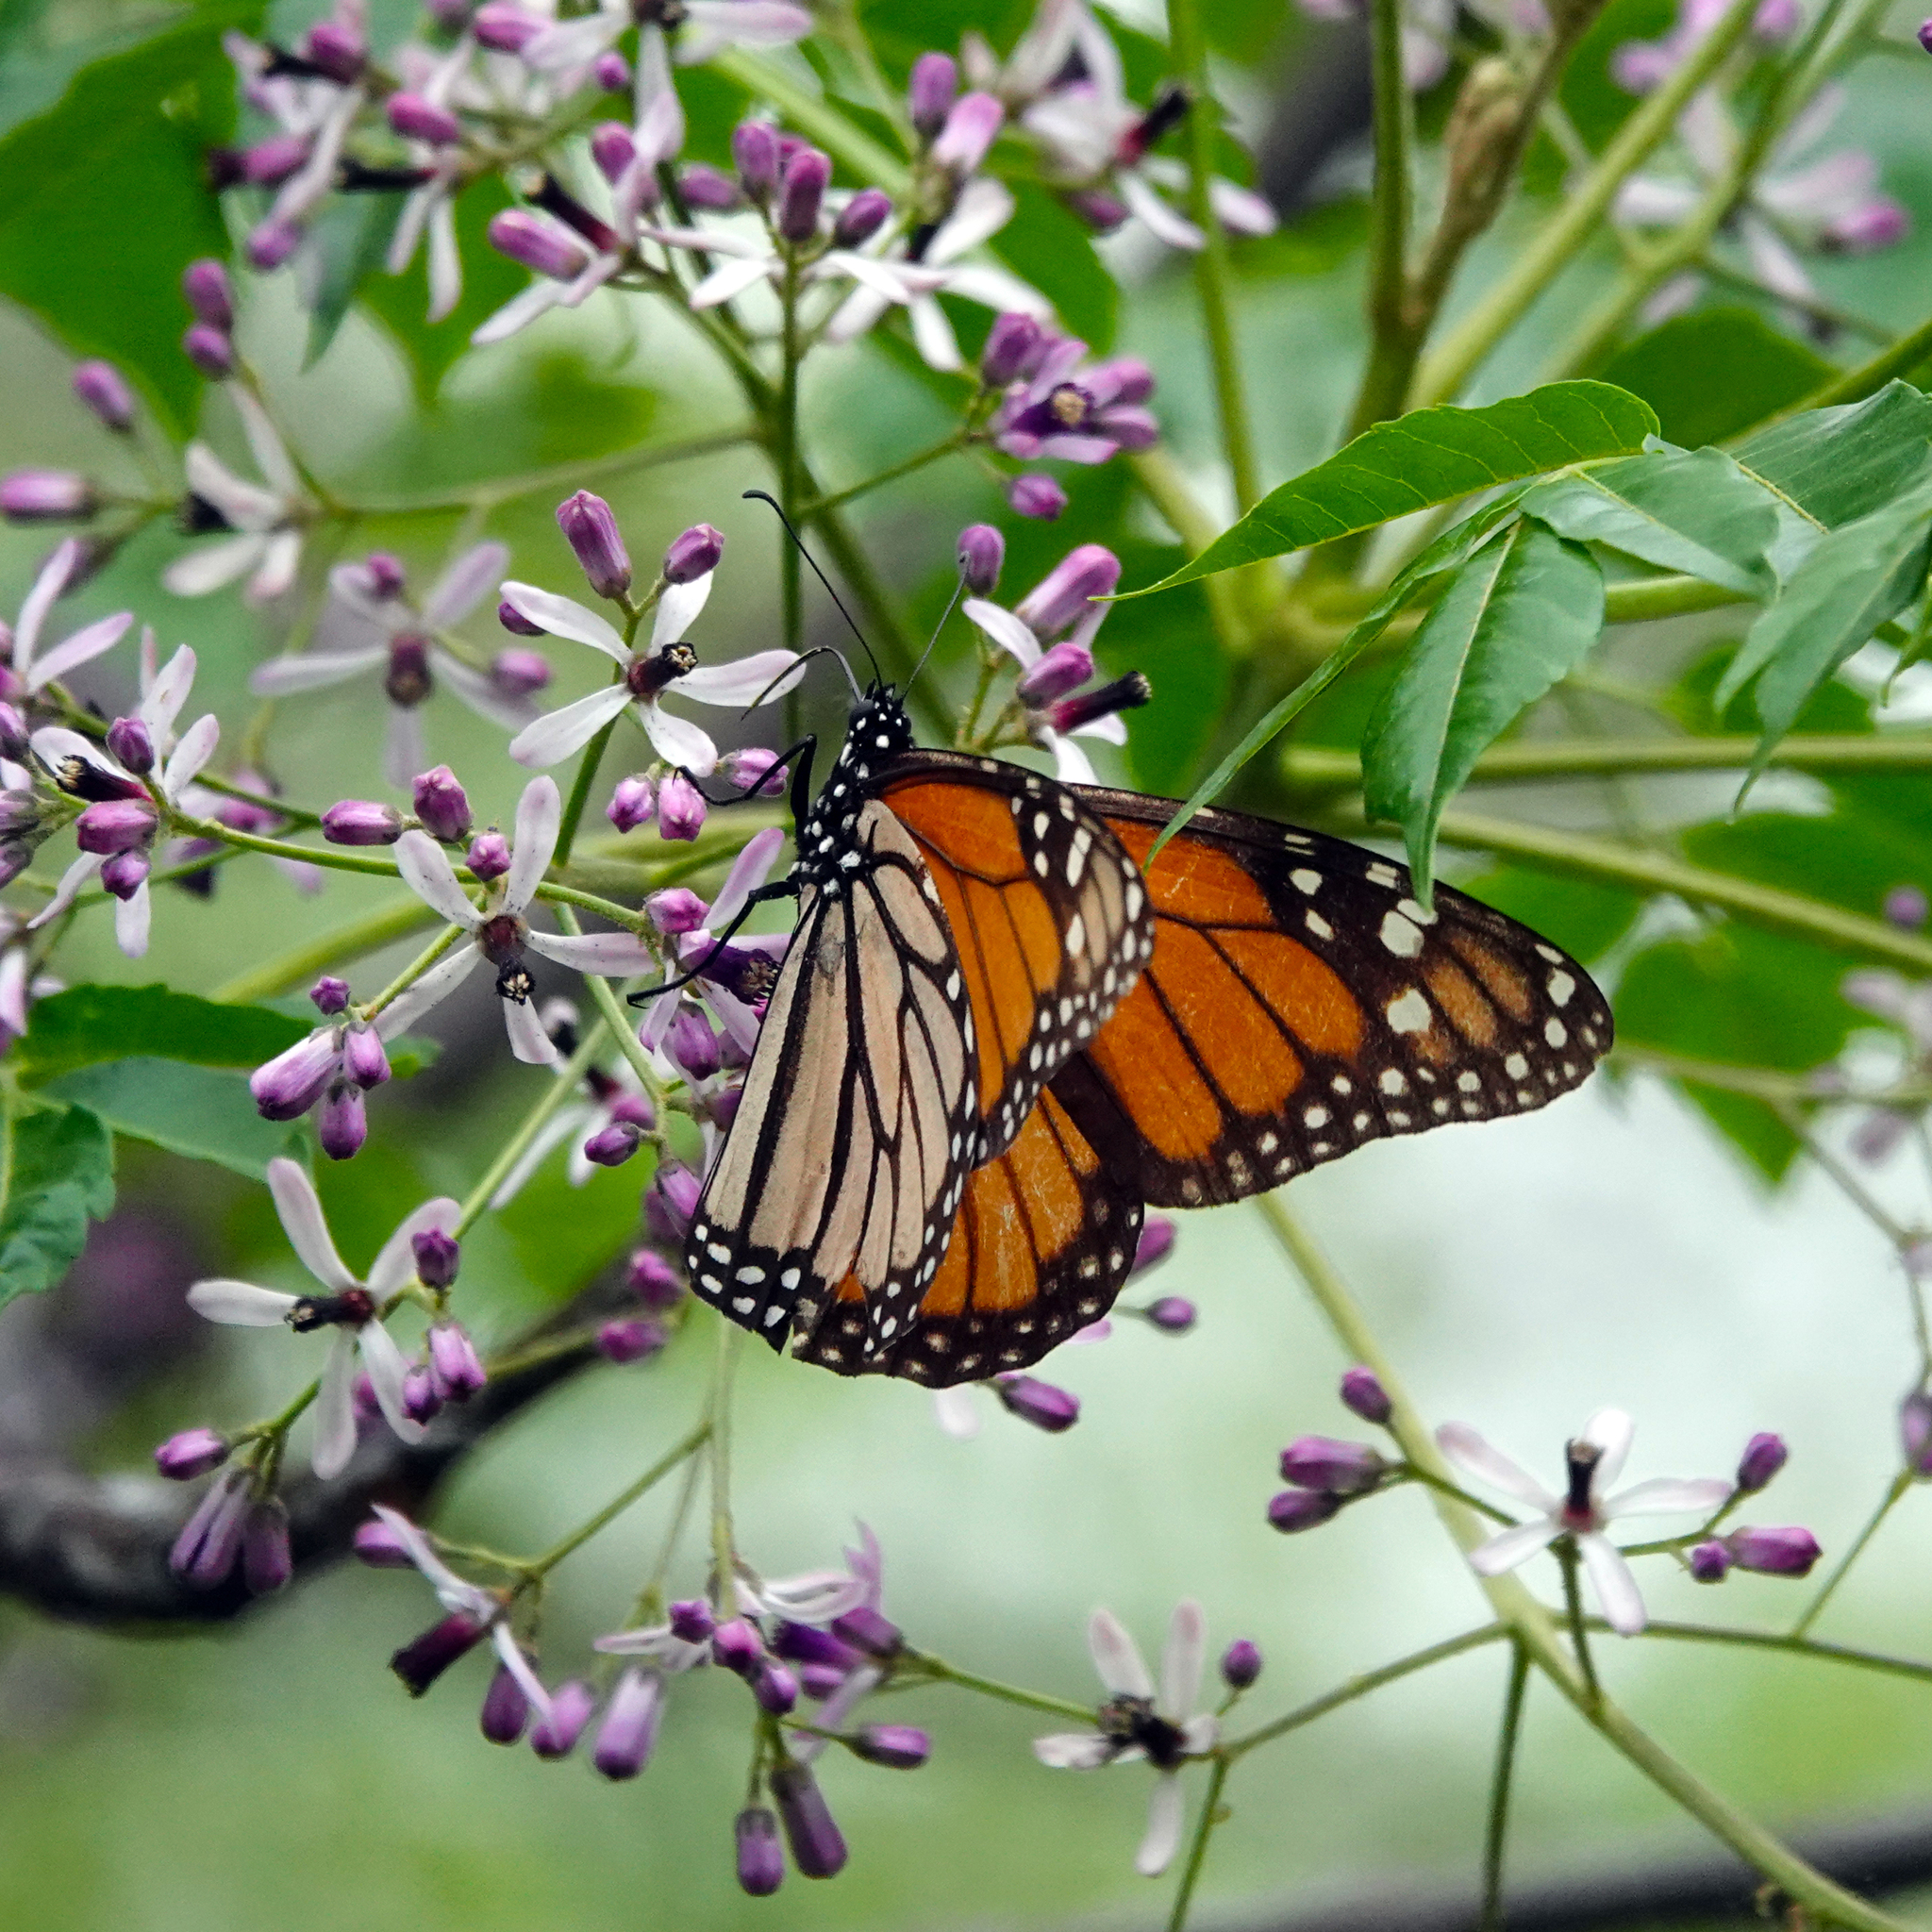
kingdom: Animalia
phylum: Arthropoda
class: Insecta
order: Lepidoptera
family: Nymphalidae
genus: Danaus
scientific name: Danaus plexippus
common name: Monarch
